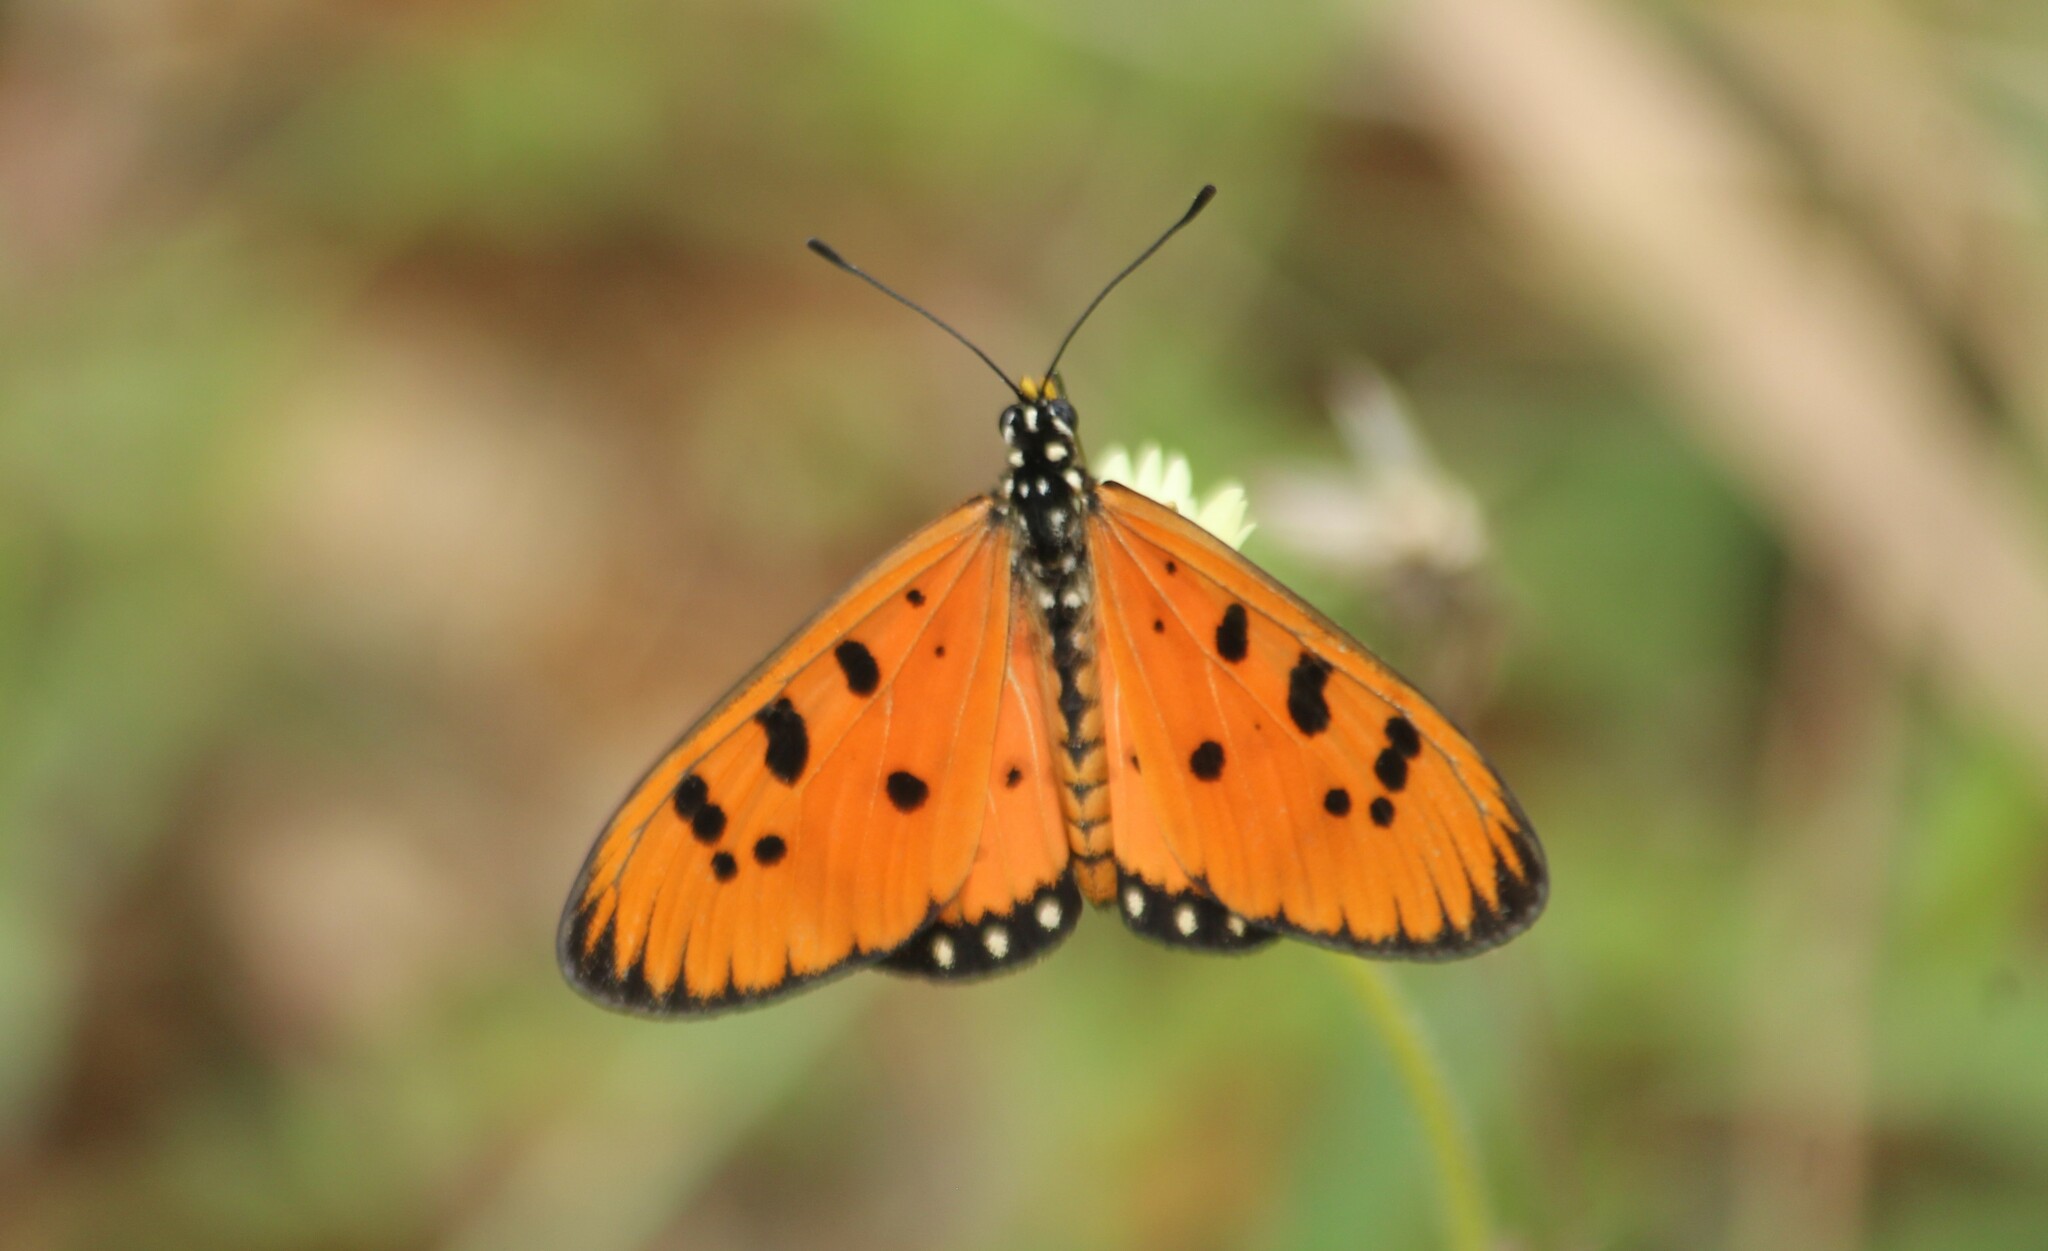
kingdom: Animalia
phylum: Arthropoda
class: Insecta
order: Lepidoptera
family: Nymphalidae
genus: Acraea
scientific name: Acraea terpsicore
